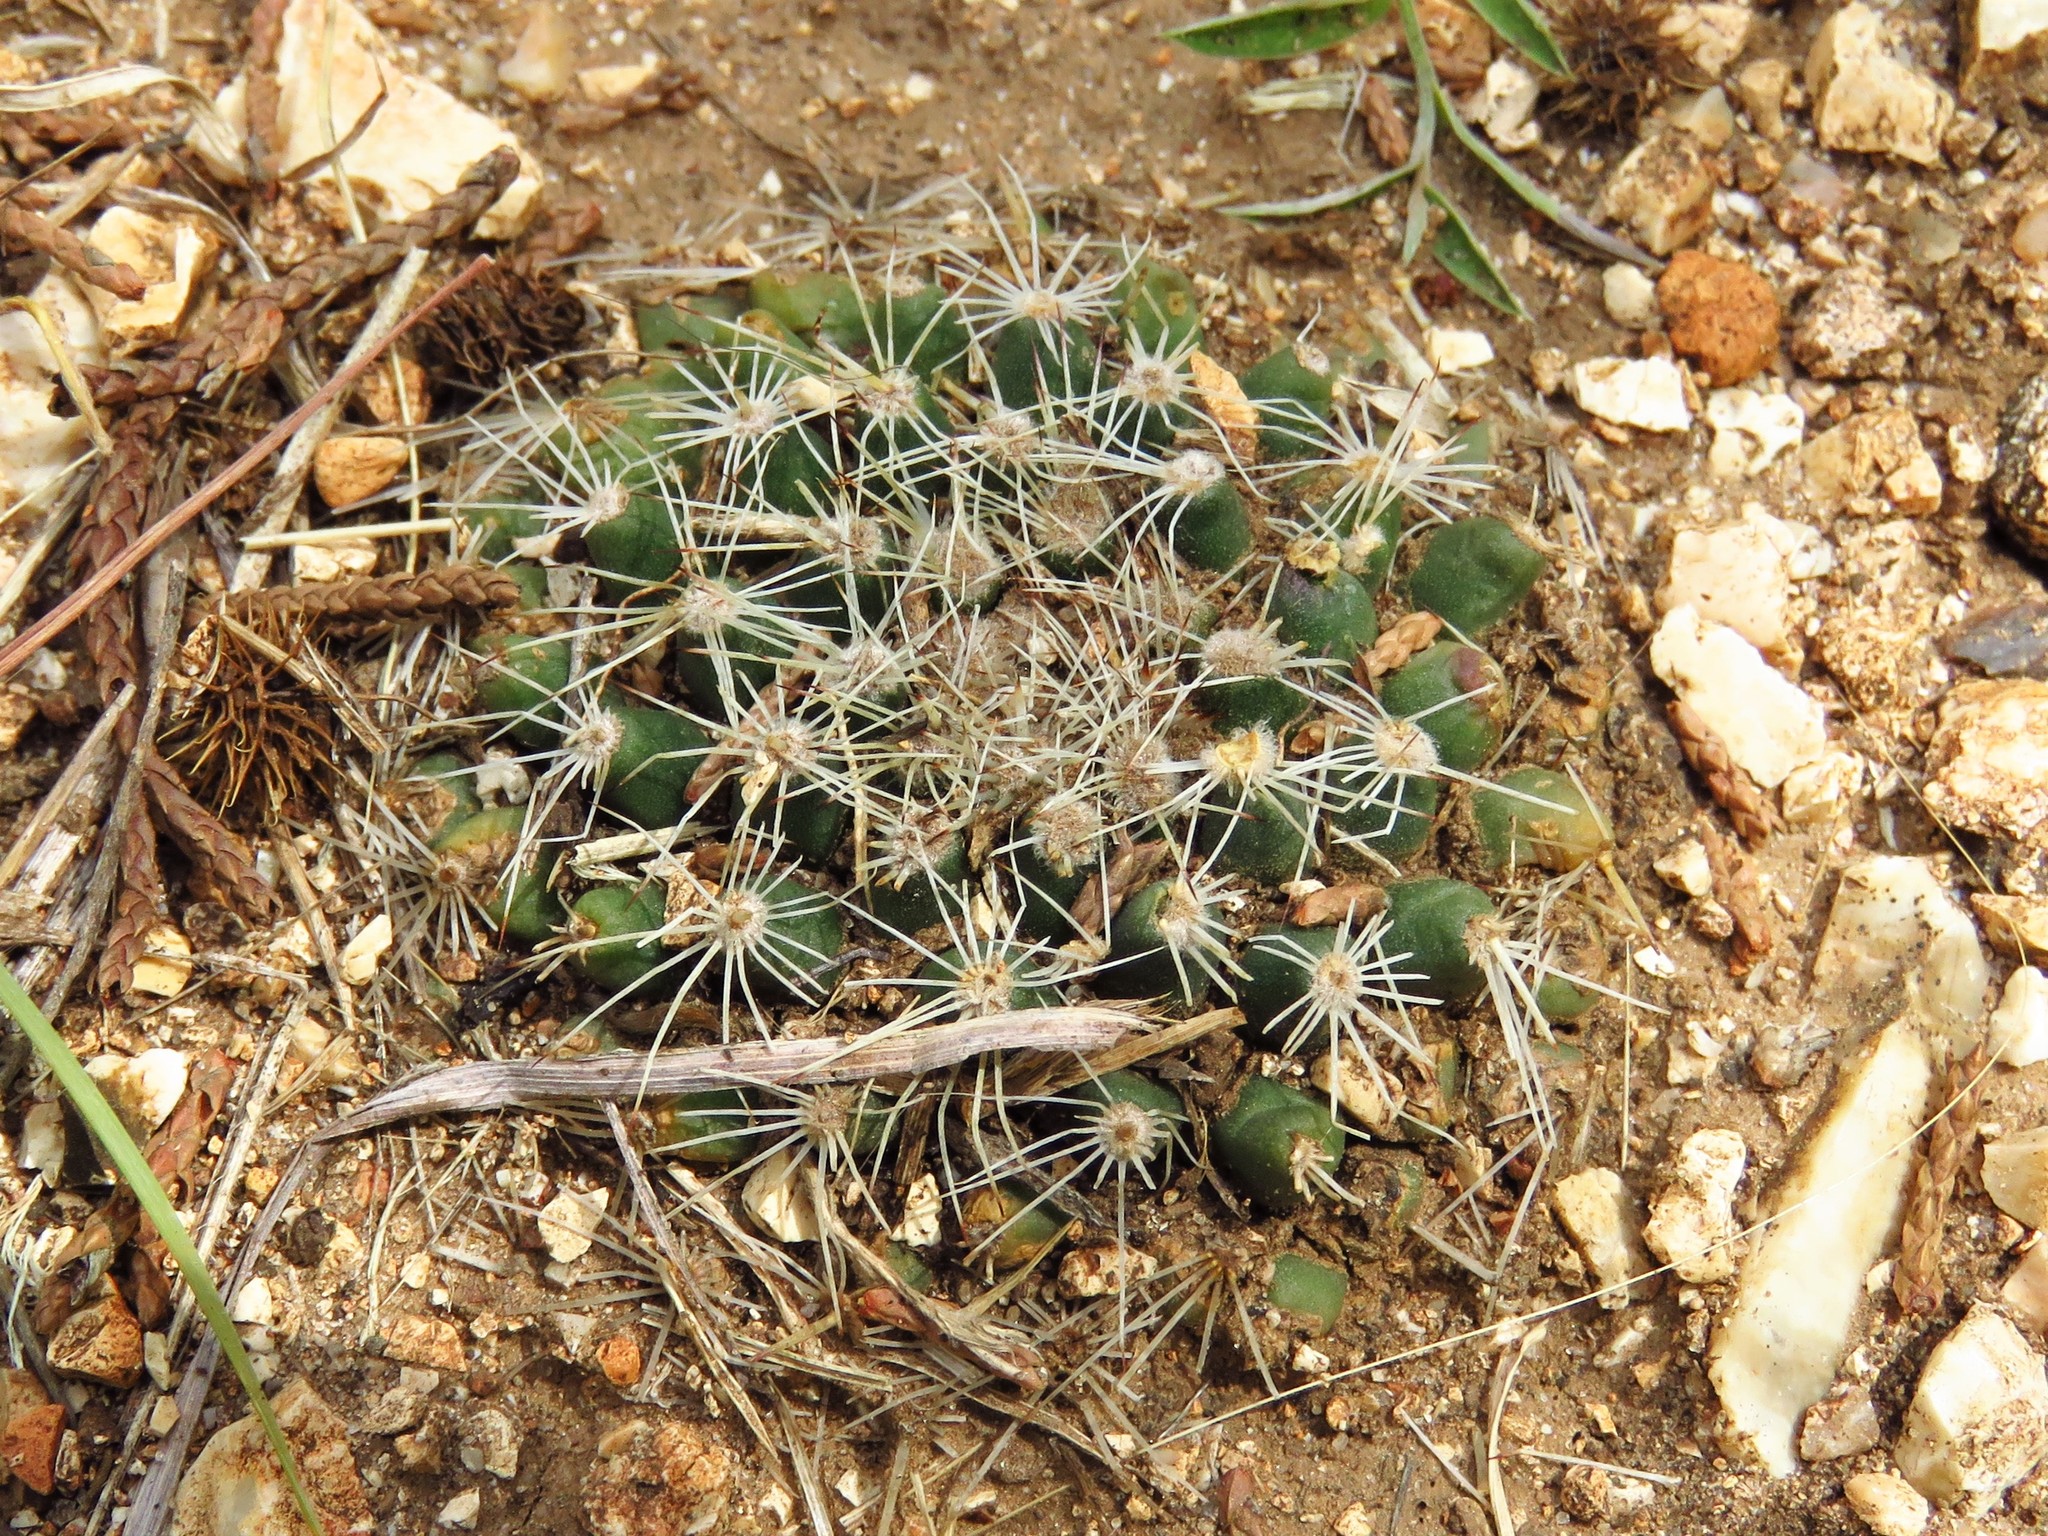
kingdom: Plantae
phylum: Tracheophyta
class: Magnoliopsida
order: Caryophyllales
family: Cactaceae
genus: Mammillaria
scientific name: Mammillaria heyderi
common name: Little nipple cactus
